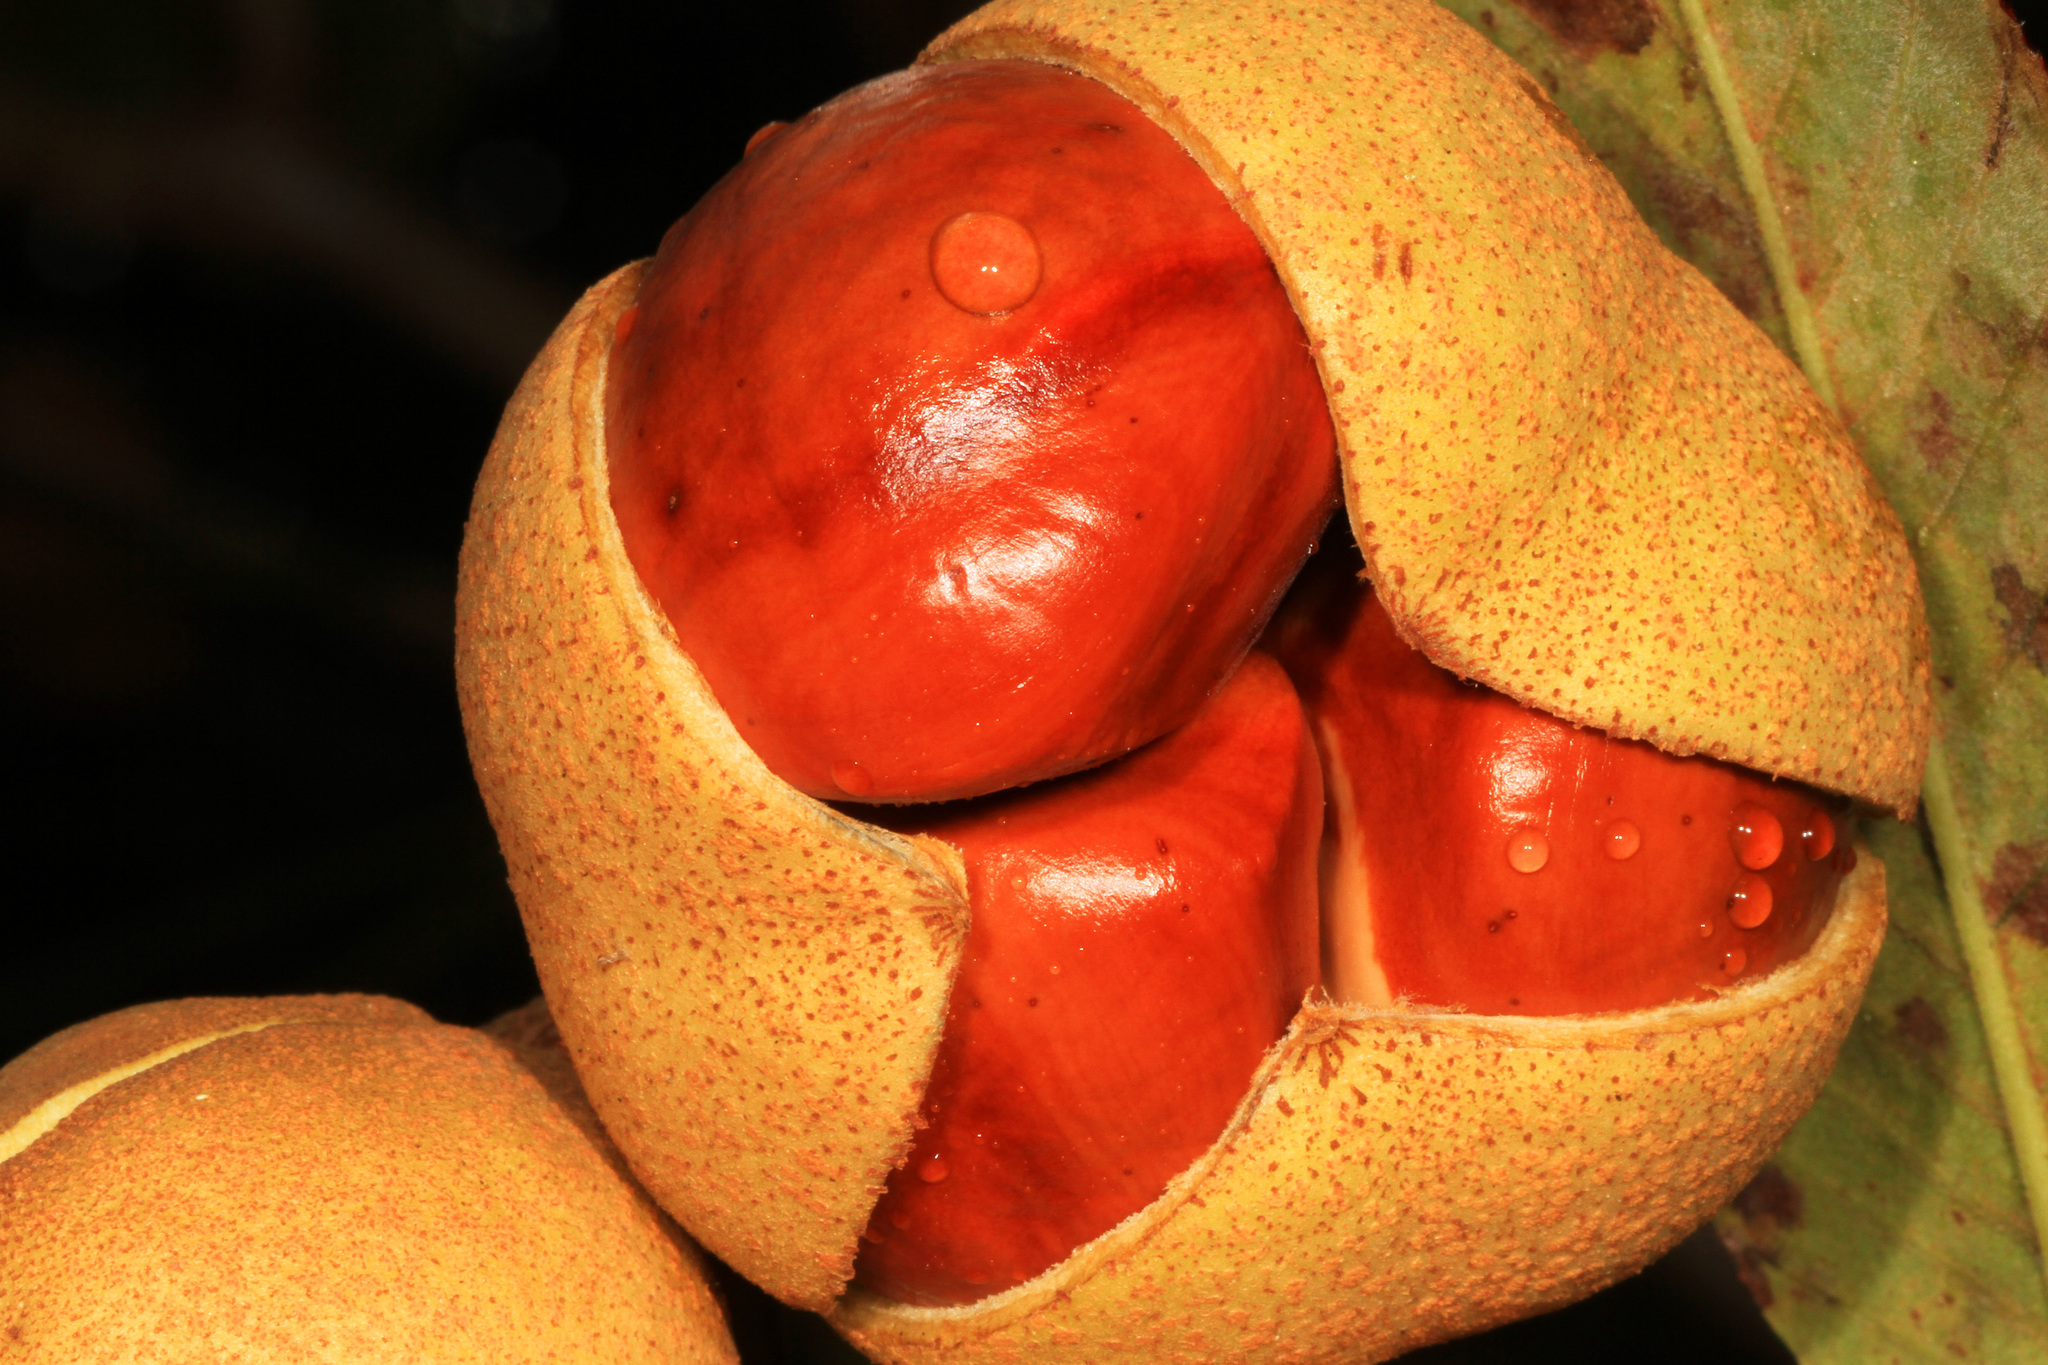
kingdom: Plantae
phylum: Tracheophyta
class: Magnoliopsida
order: Sapindales
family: Sapindaceae
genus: Aesculus
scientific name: Aesculus pavia
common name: Red buckeye
